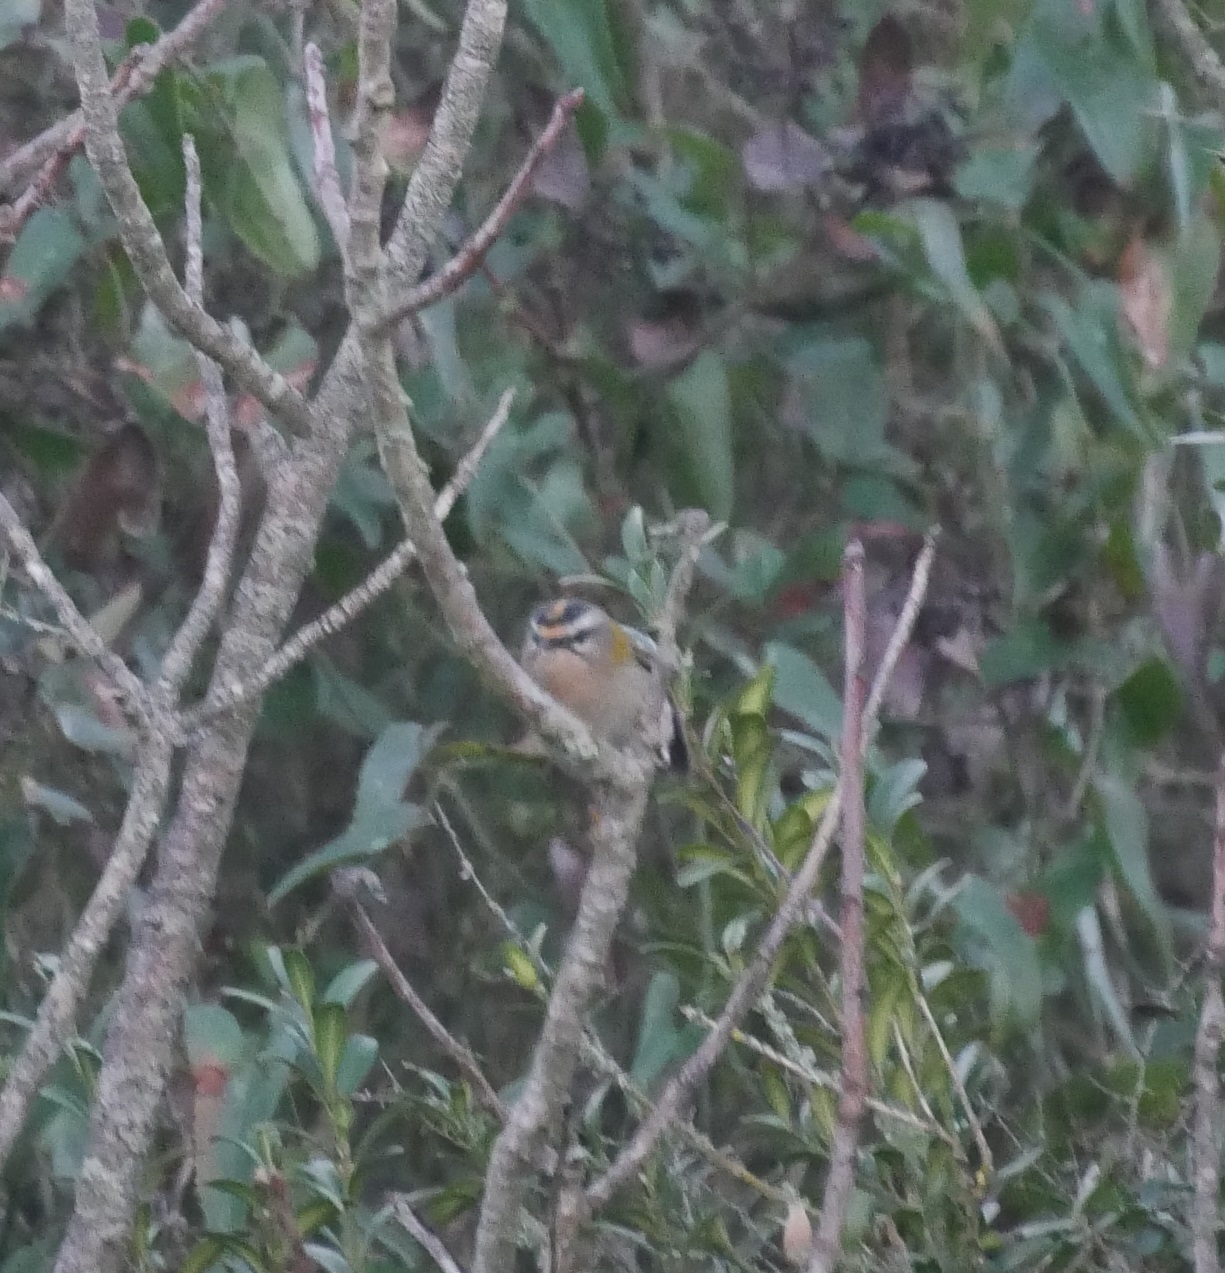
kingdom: Animalia
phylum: Chordata
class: Aves
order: Passeriformes
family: Regulidae
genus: Regulus
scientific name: Regulus ignicapilla
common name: Firecrest
